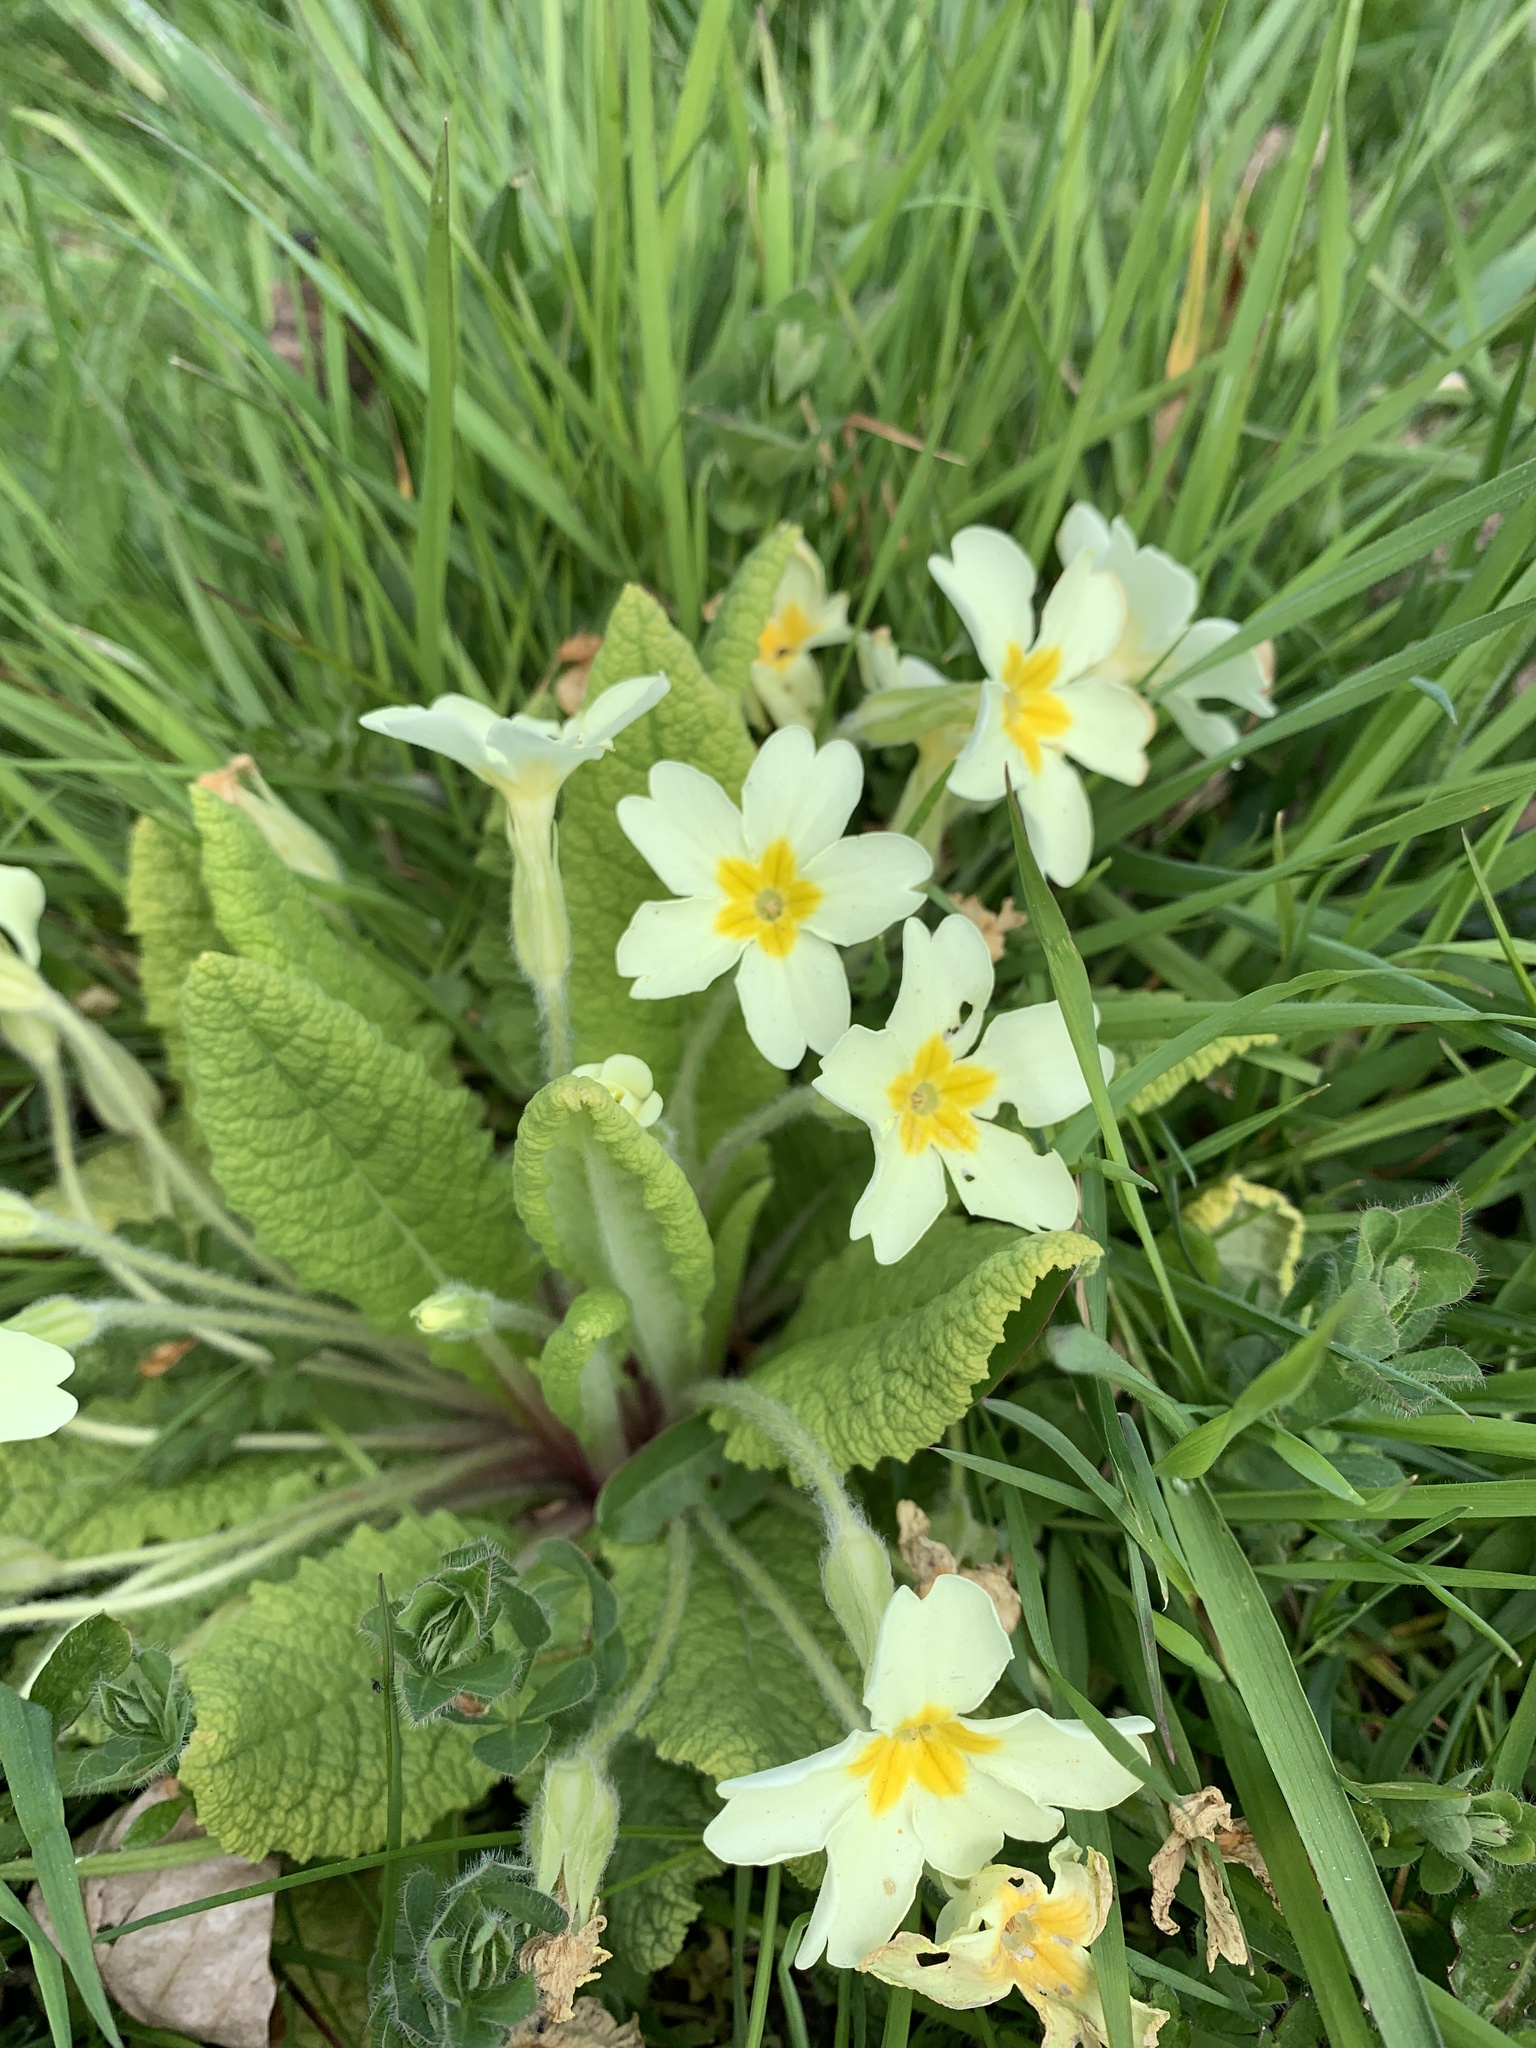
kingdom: Plantae
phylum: Tracheophyta
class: Magnoliopsida
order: Ericales
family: Primulaceae
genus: Primula
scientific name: Primula vulgaris
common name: Primrose
